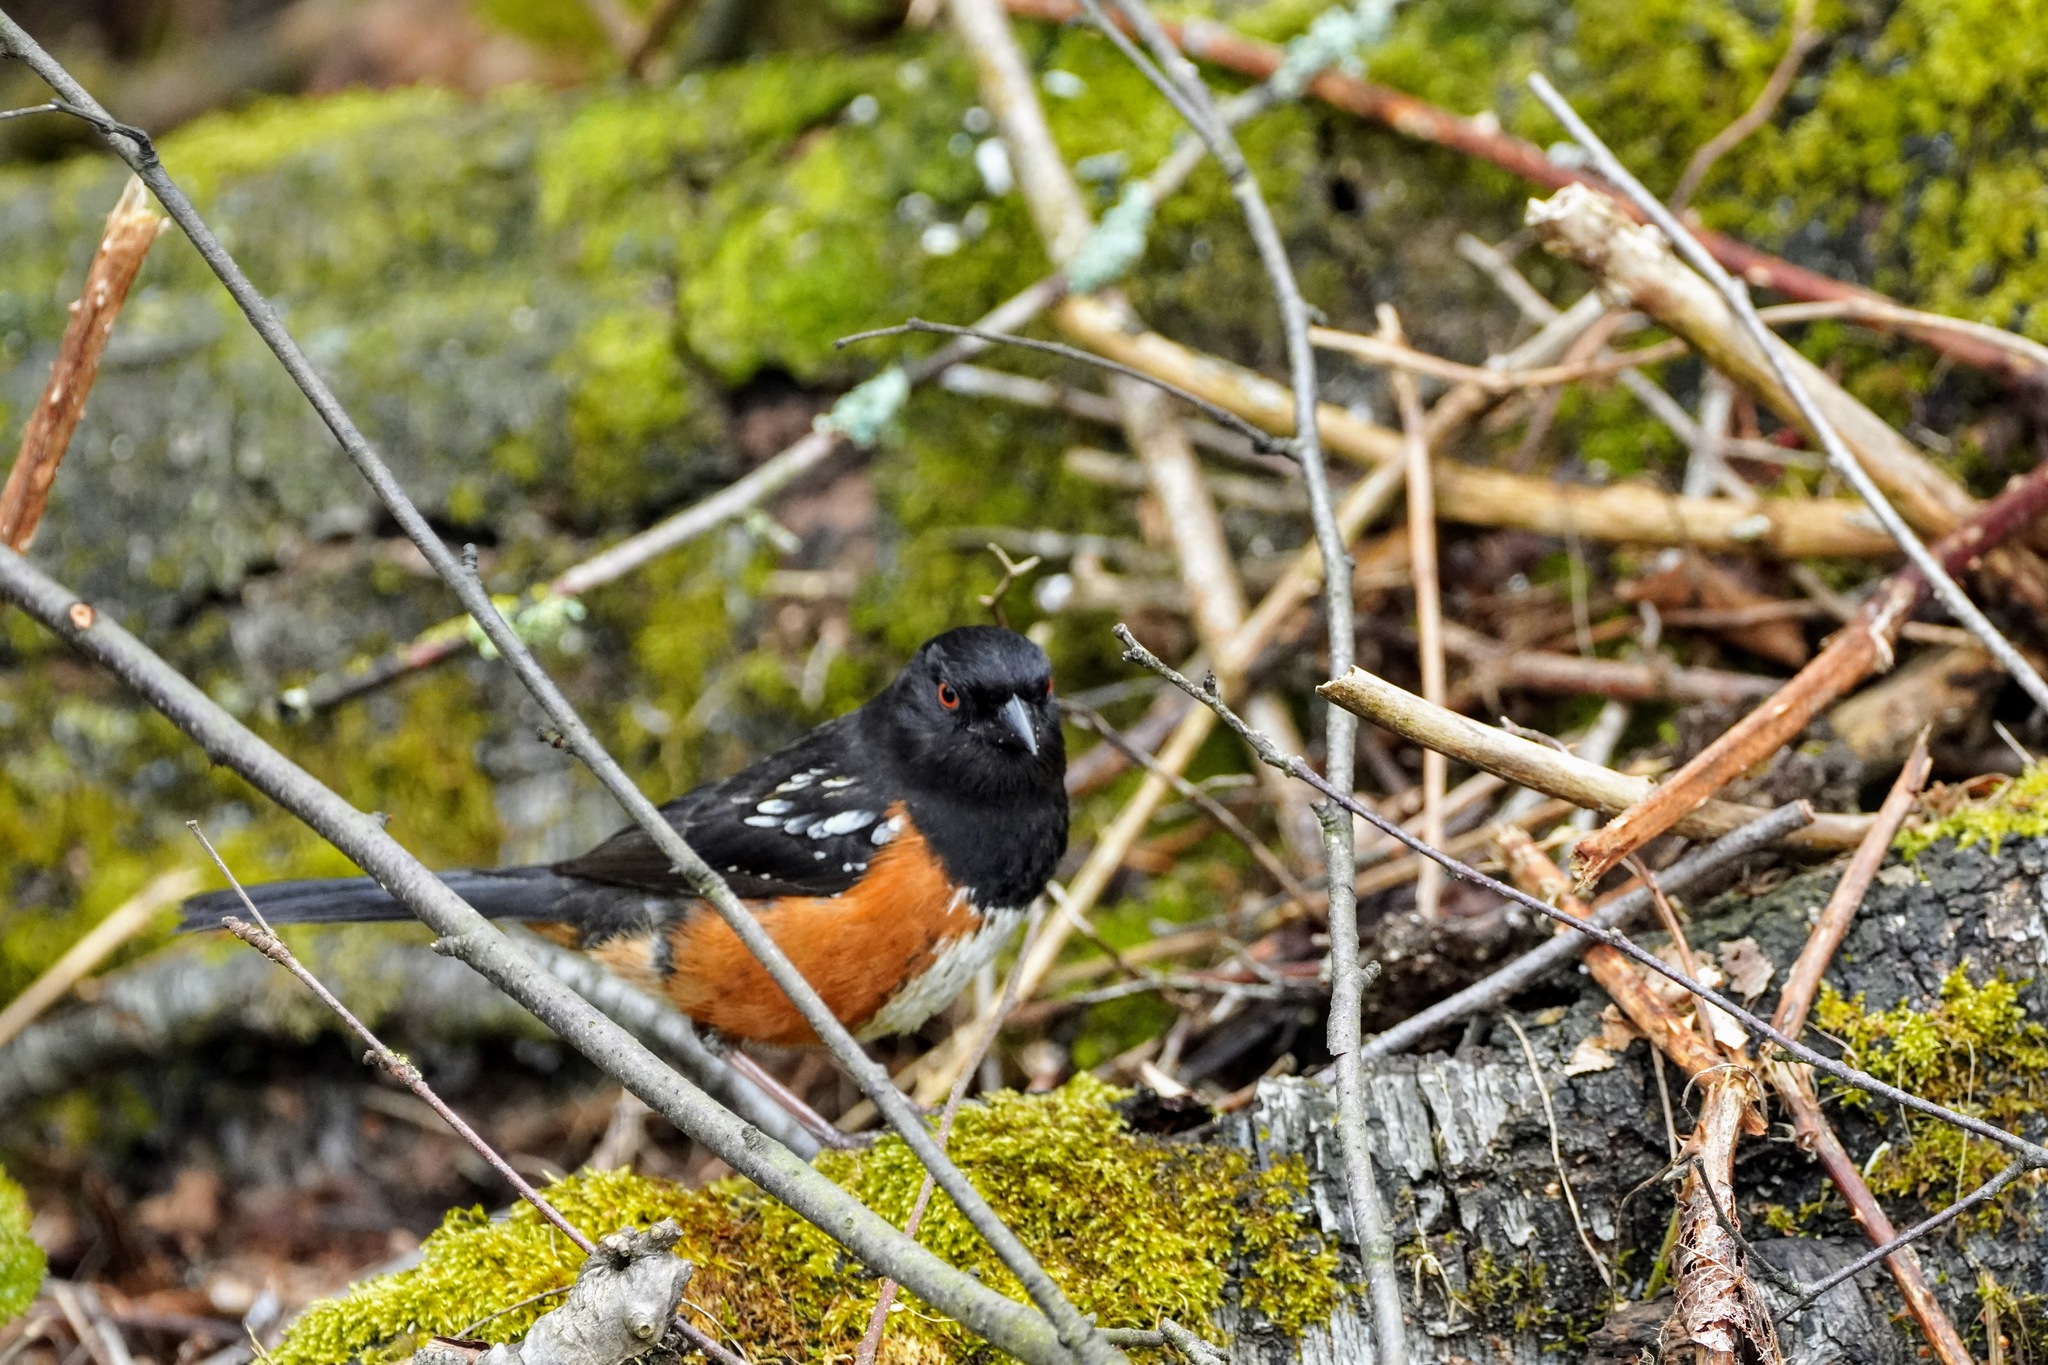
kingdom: Animalia
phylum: Chordata
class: Aves
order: Passeriformes
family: Passerellidae
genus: Pipilo
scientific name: Pipilo maculatus
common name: Spotted towhee
